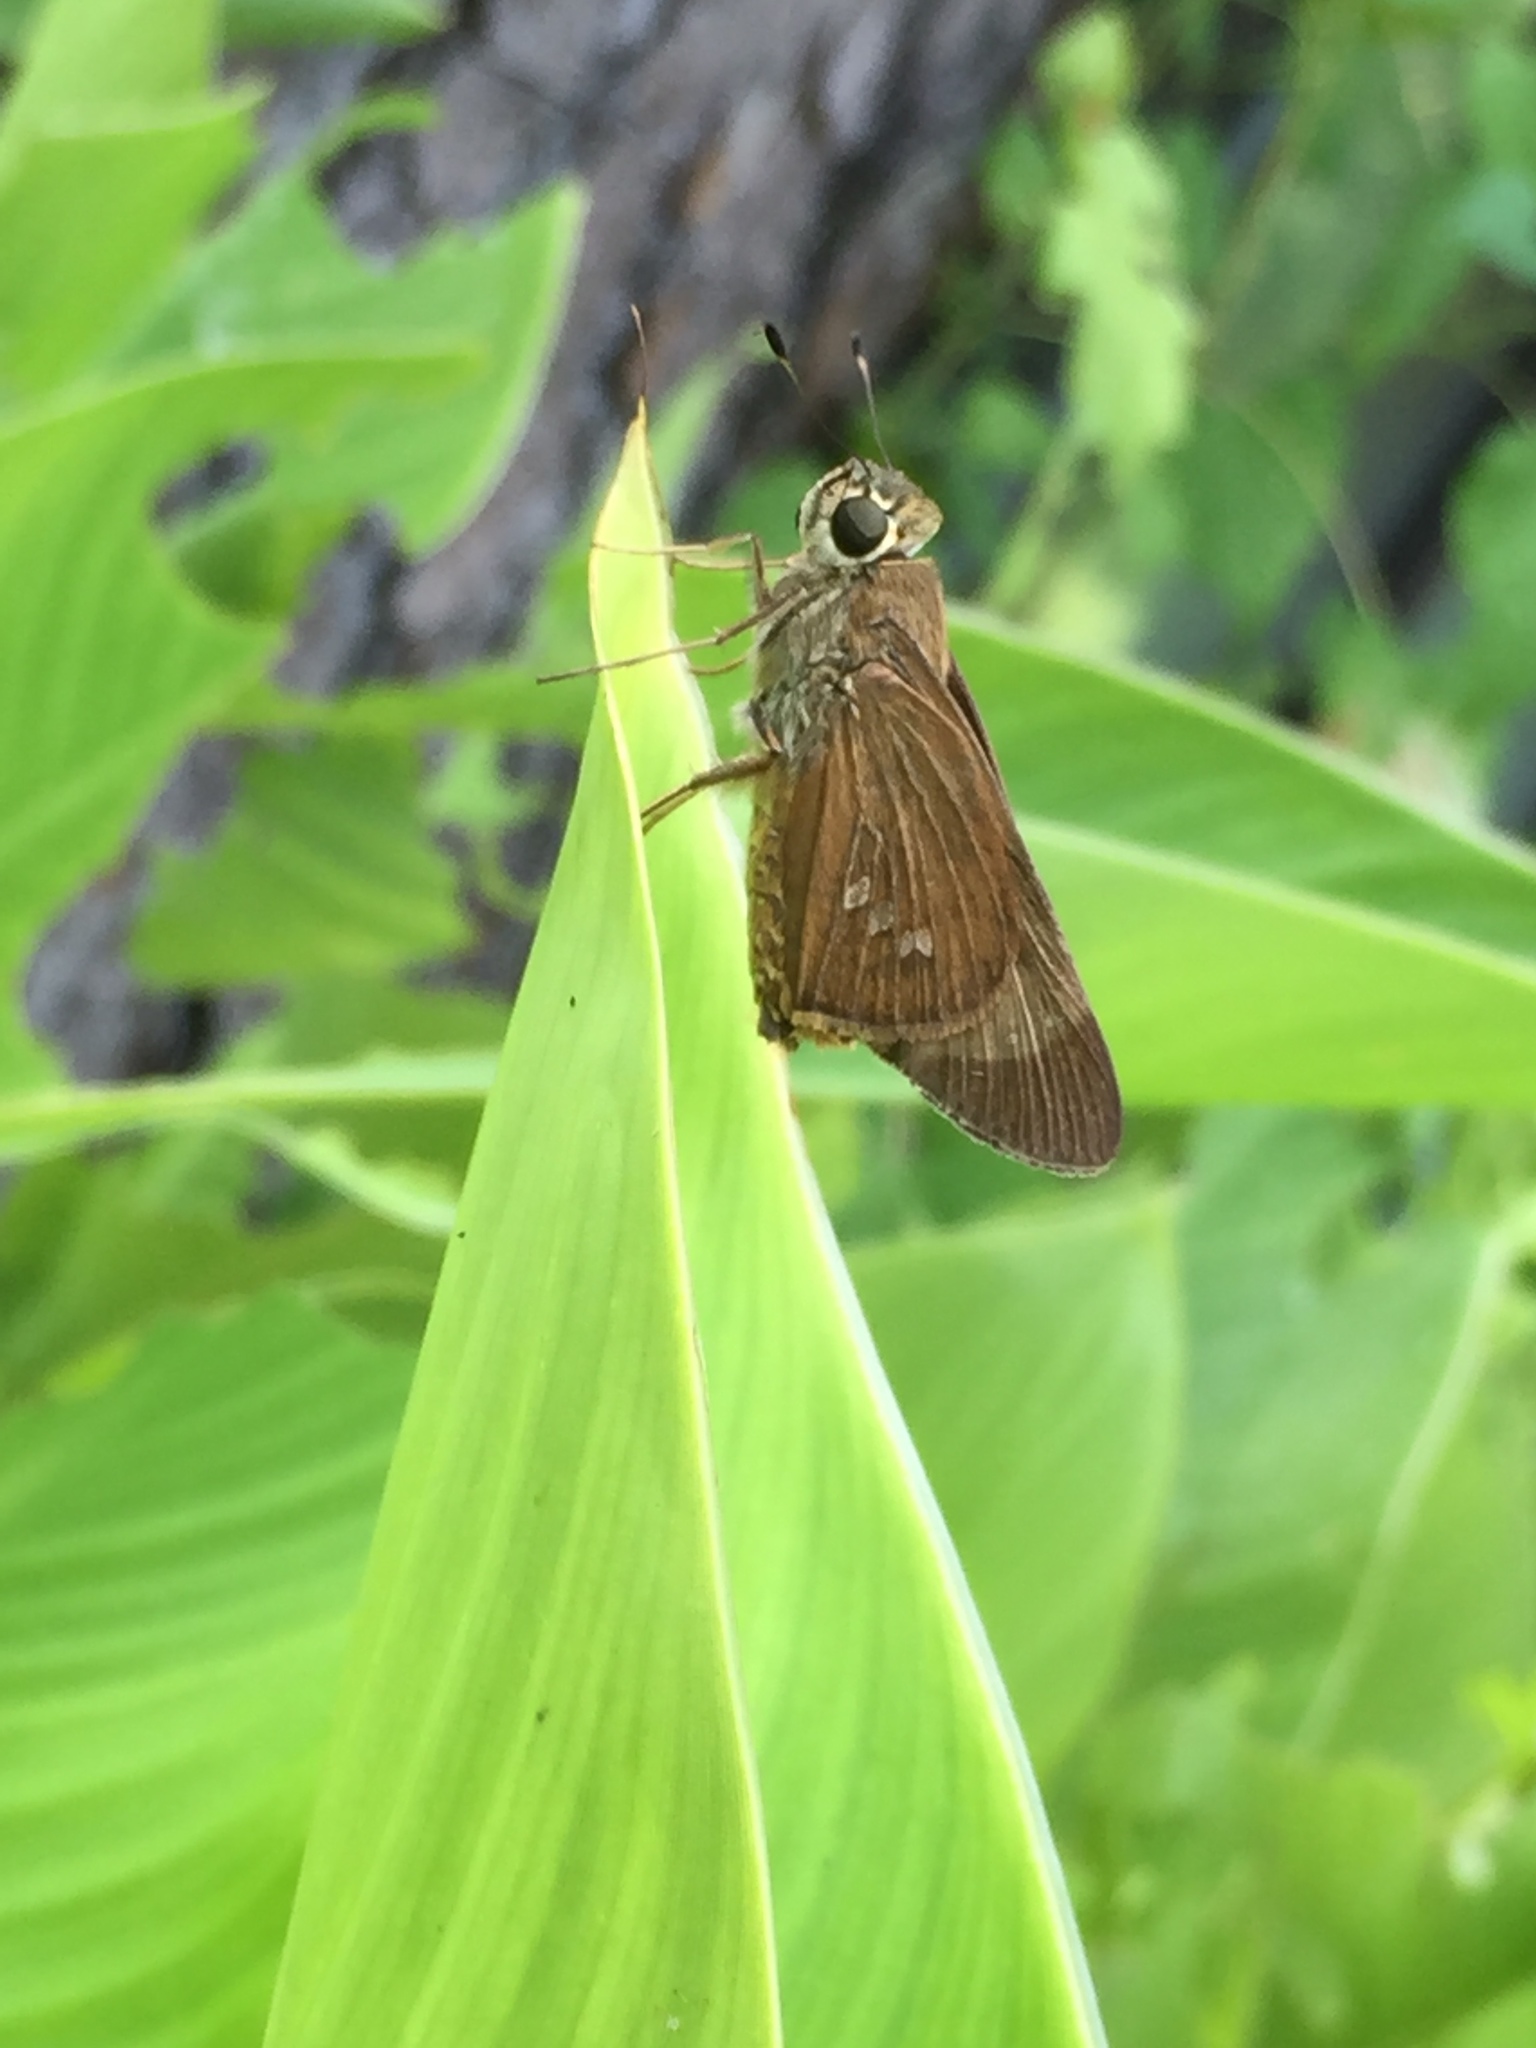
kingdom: Animalia
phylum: Arthropoda
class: Insecta
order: Lepidoptera
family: Hesperiidae
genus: Calpodes
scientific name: Calpodes ethlius
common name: Brazilian skipper
